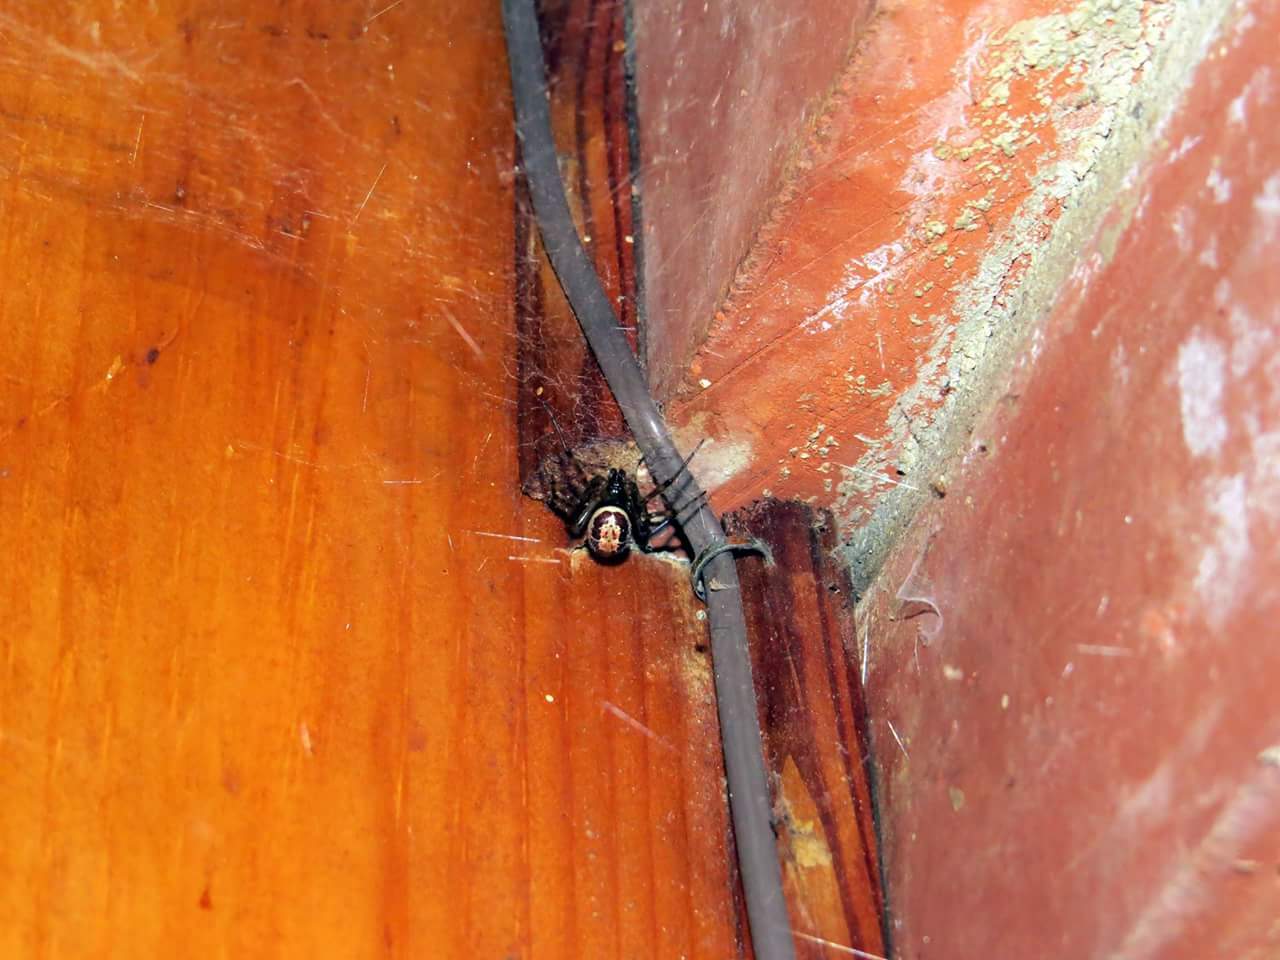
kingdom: Animalia
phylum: Arthropoda
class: Arachnida
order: Araneae
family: Theridiidae
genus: Steatoda
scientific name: Steatoda nobilis
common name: Cobweb weaver
